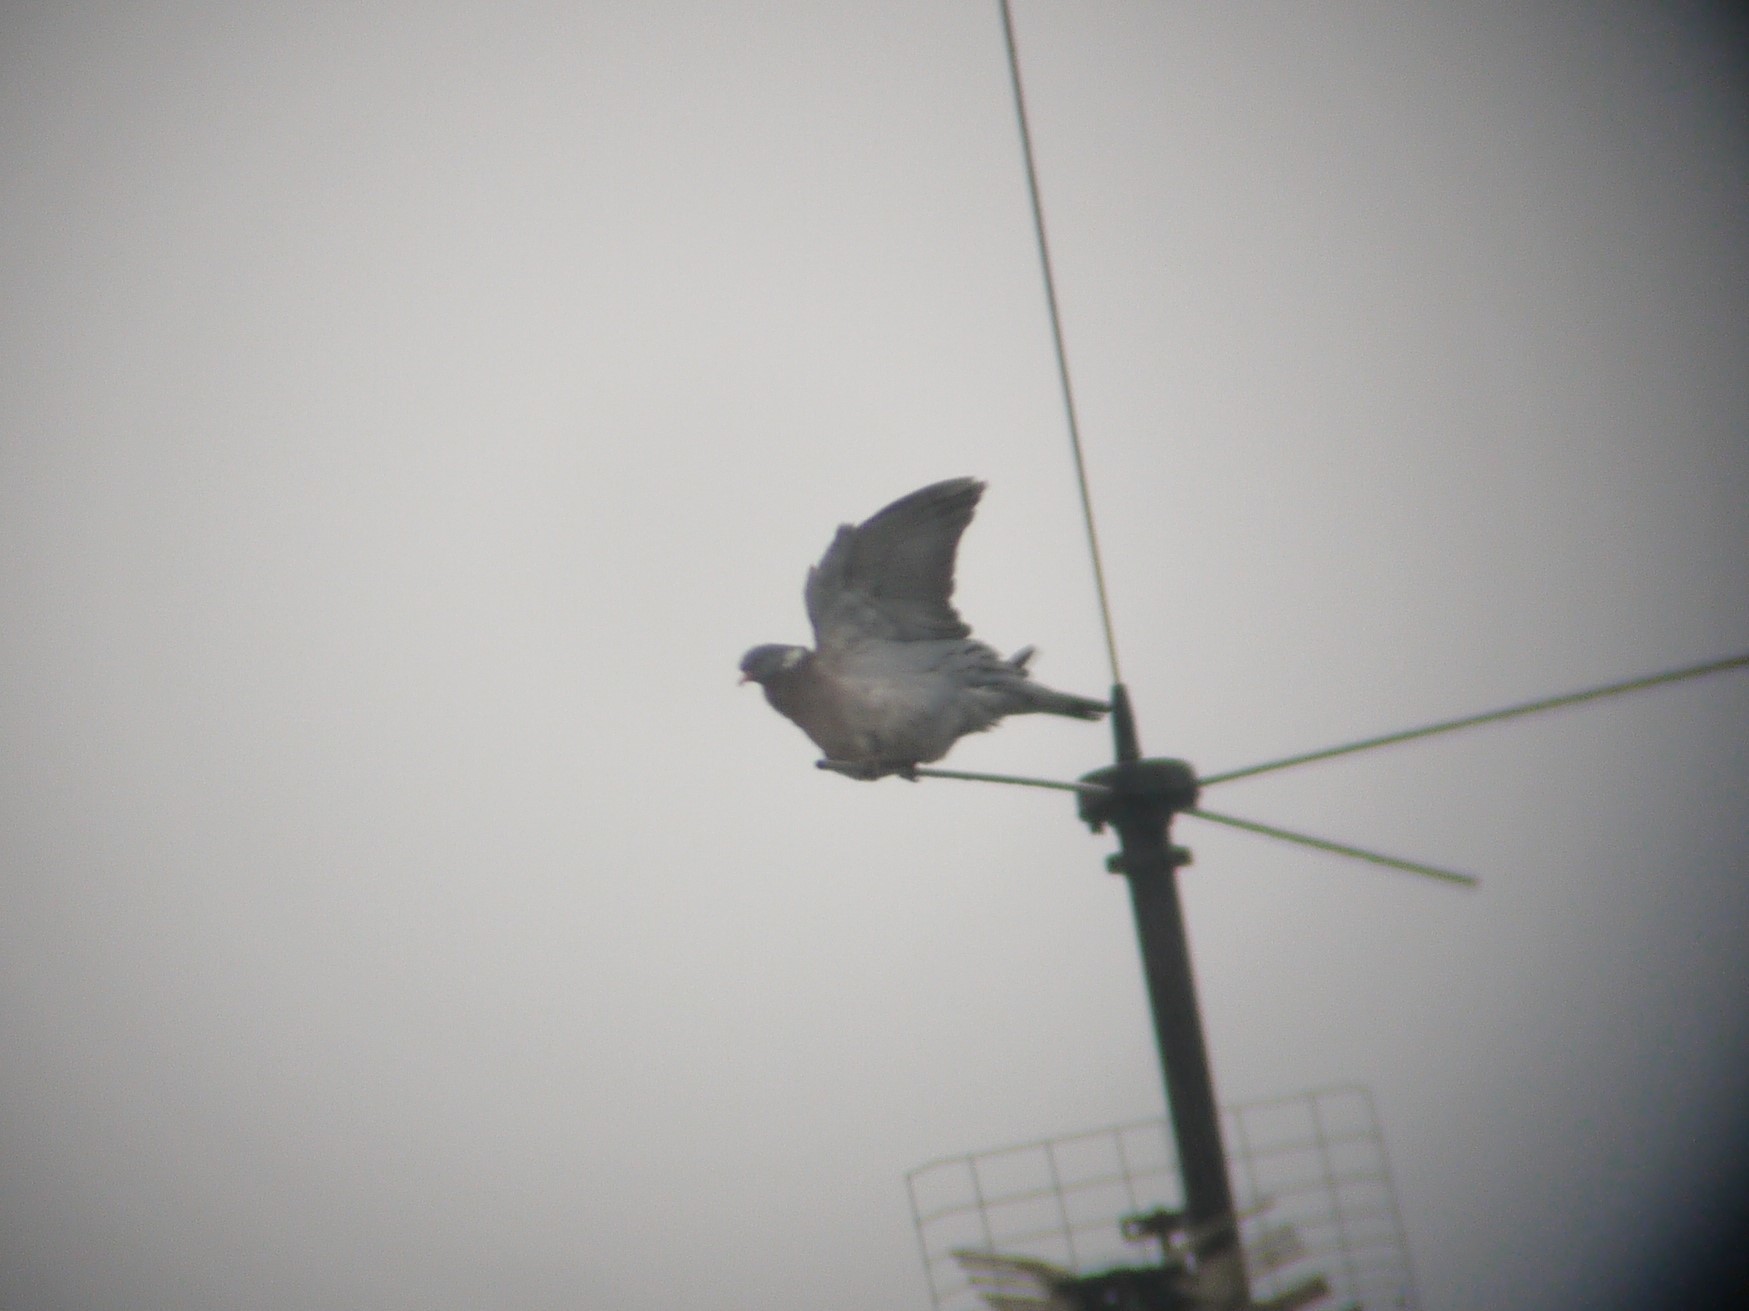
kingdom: Animalia
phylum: Chordata
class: Aves
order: Columbiformes
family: Columbidae
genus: Columba
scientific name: Columba palumbus
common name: Common wood pigeon
